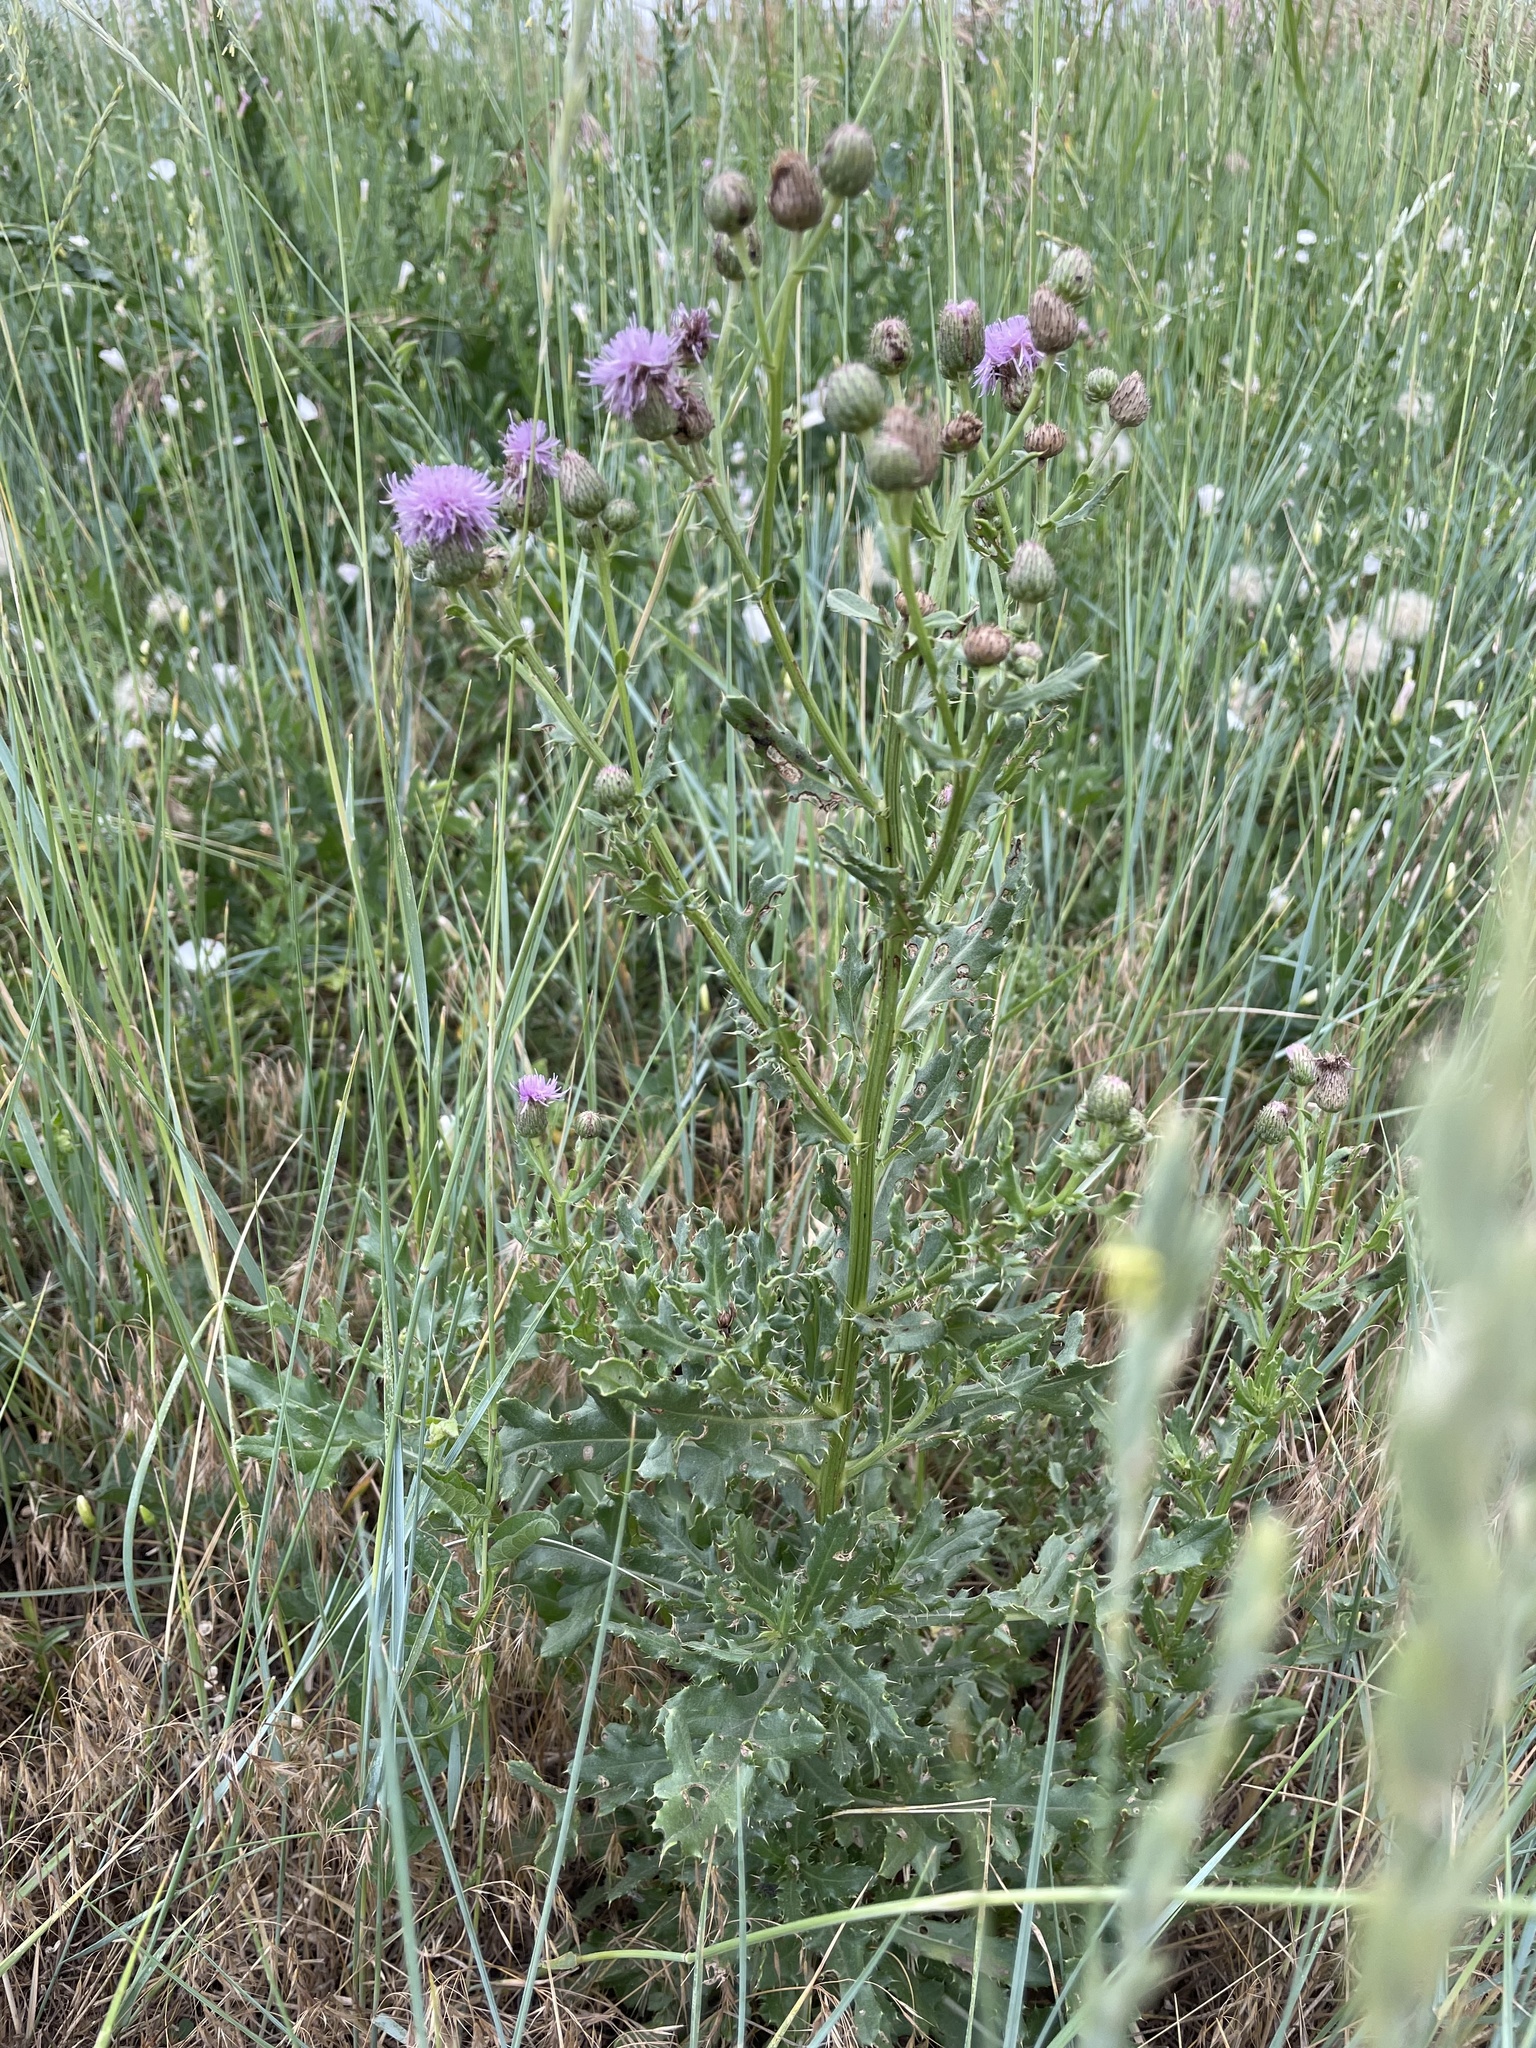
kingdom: Plantae
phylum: Tracheophyta
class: Magnoliopsida
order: Asterales
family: Asteraceae
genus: Cirsium
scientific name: Cirsium arvense
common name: Creeping thistle
